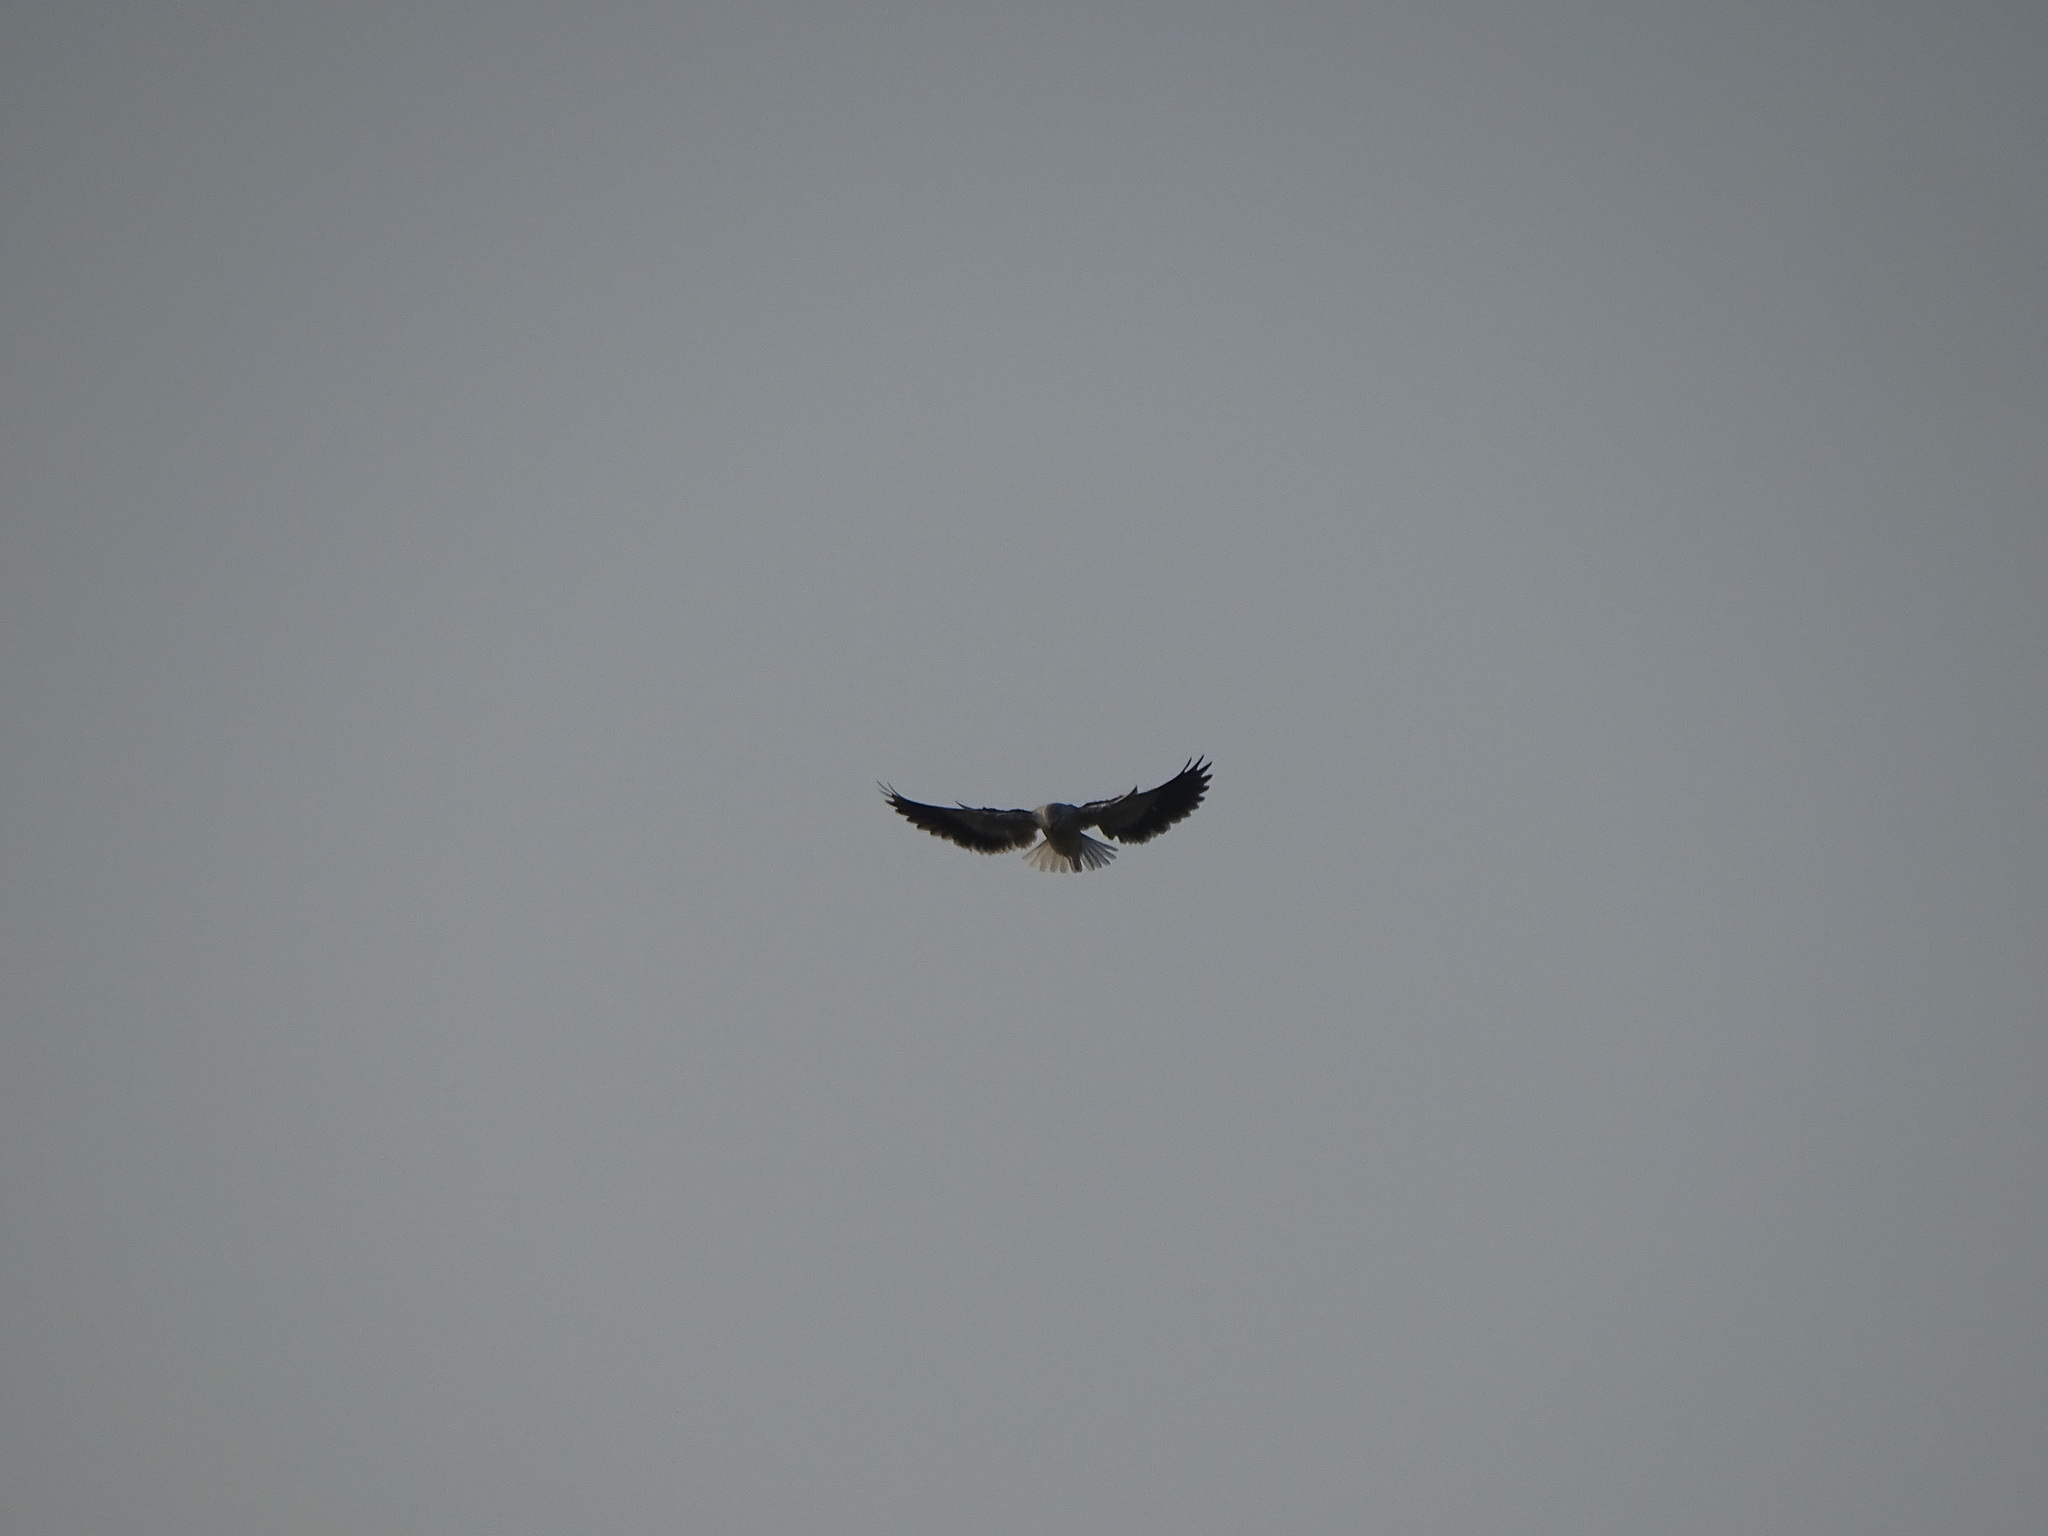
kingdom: Animalia
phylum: Chordata
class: Aves
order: Accipitriformes
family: Accipitridae
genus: Elanus
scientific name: Elanus caeruleus
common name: Black-winged kite
